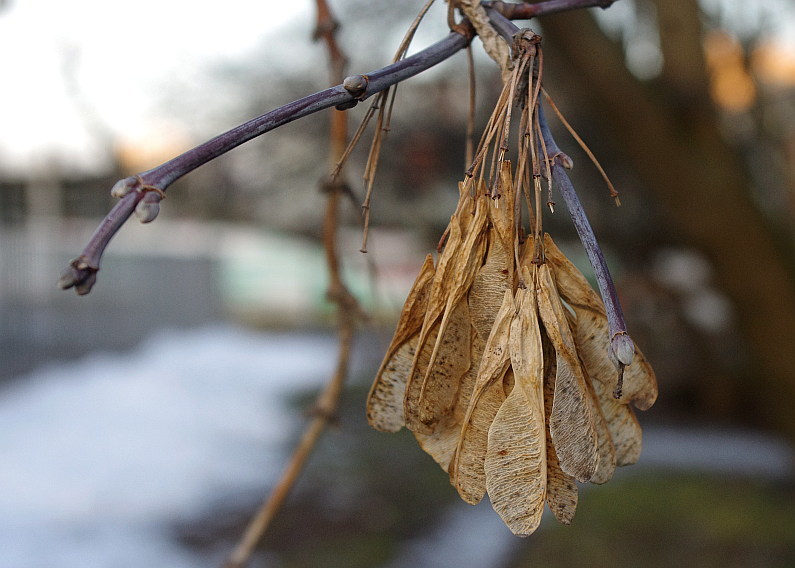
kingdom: Plantae
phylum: Tracheophyta
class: Magnoliopsida
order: Sapindales
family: Sapindaceae
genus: Acer
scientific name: Acer negundo
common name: Ashleaf maple
